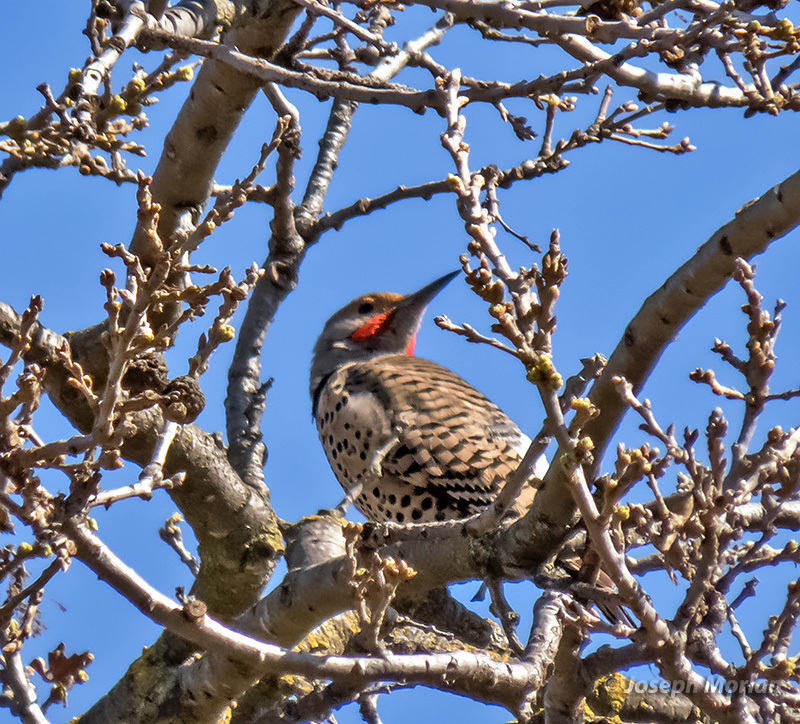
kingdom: Animalia
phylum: Chordata
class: Aves
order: Piciformes
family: Picidae
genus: Colaptes
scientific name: Colaptes auratus
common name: Northern flicker
